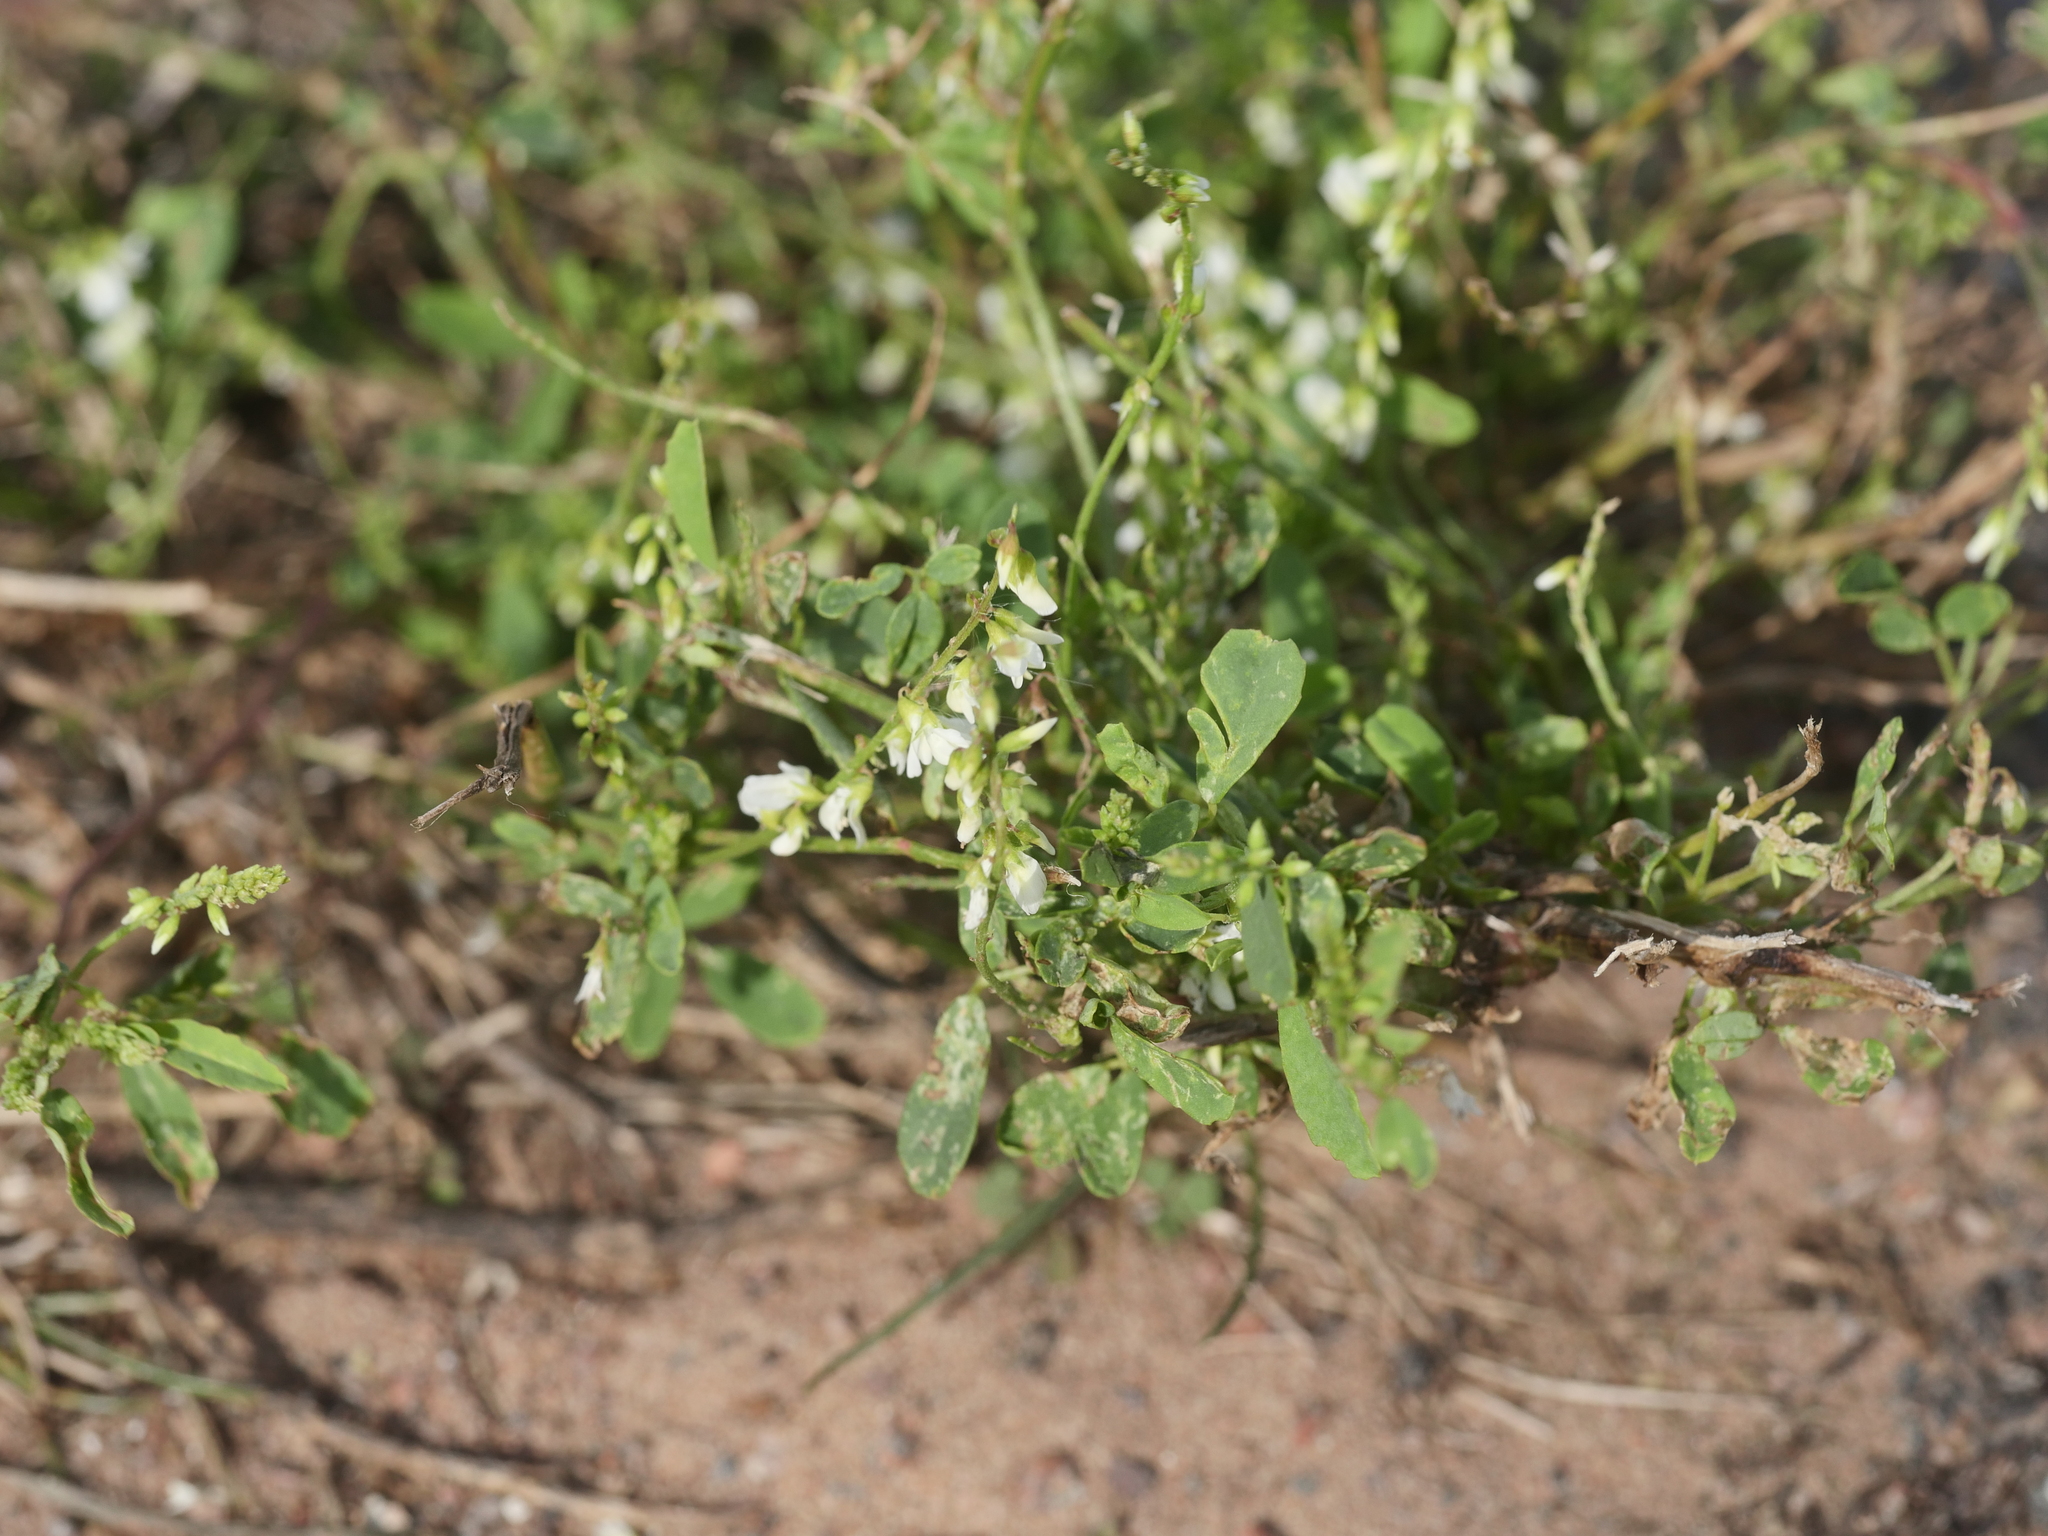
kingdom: Plantae
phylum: Tracheophyta
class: Magnoliopsida
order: Fabales
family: Fabaceae
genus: Melilotus
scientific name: Melilotus albus
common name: White melilot
